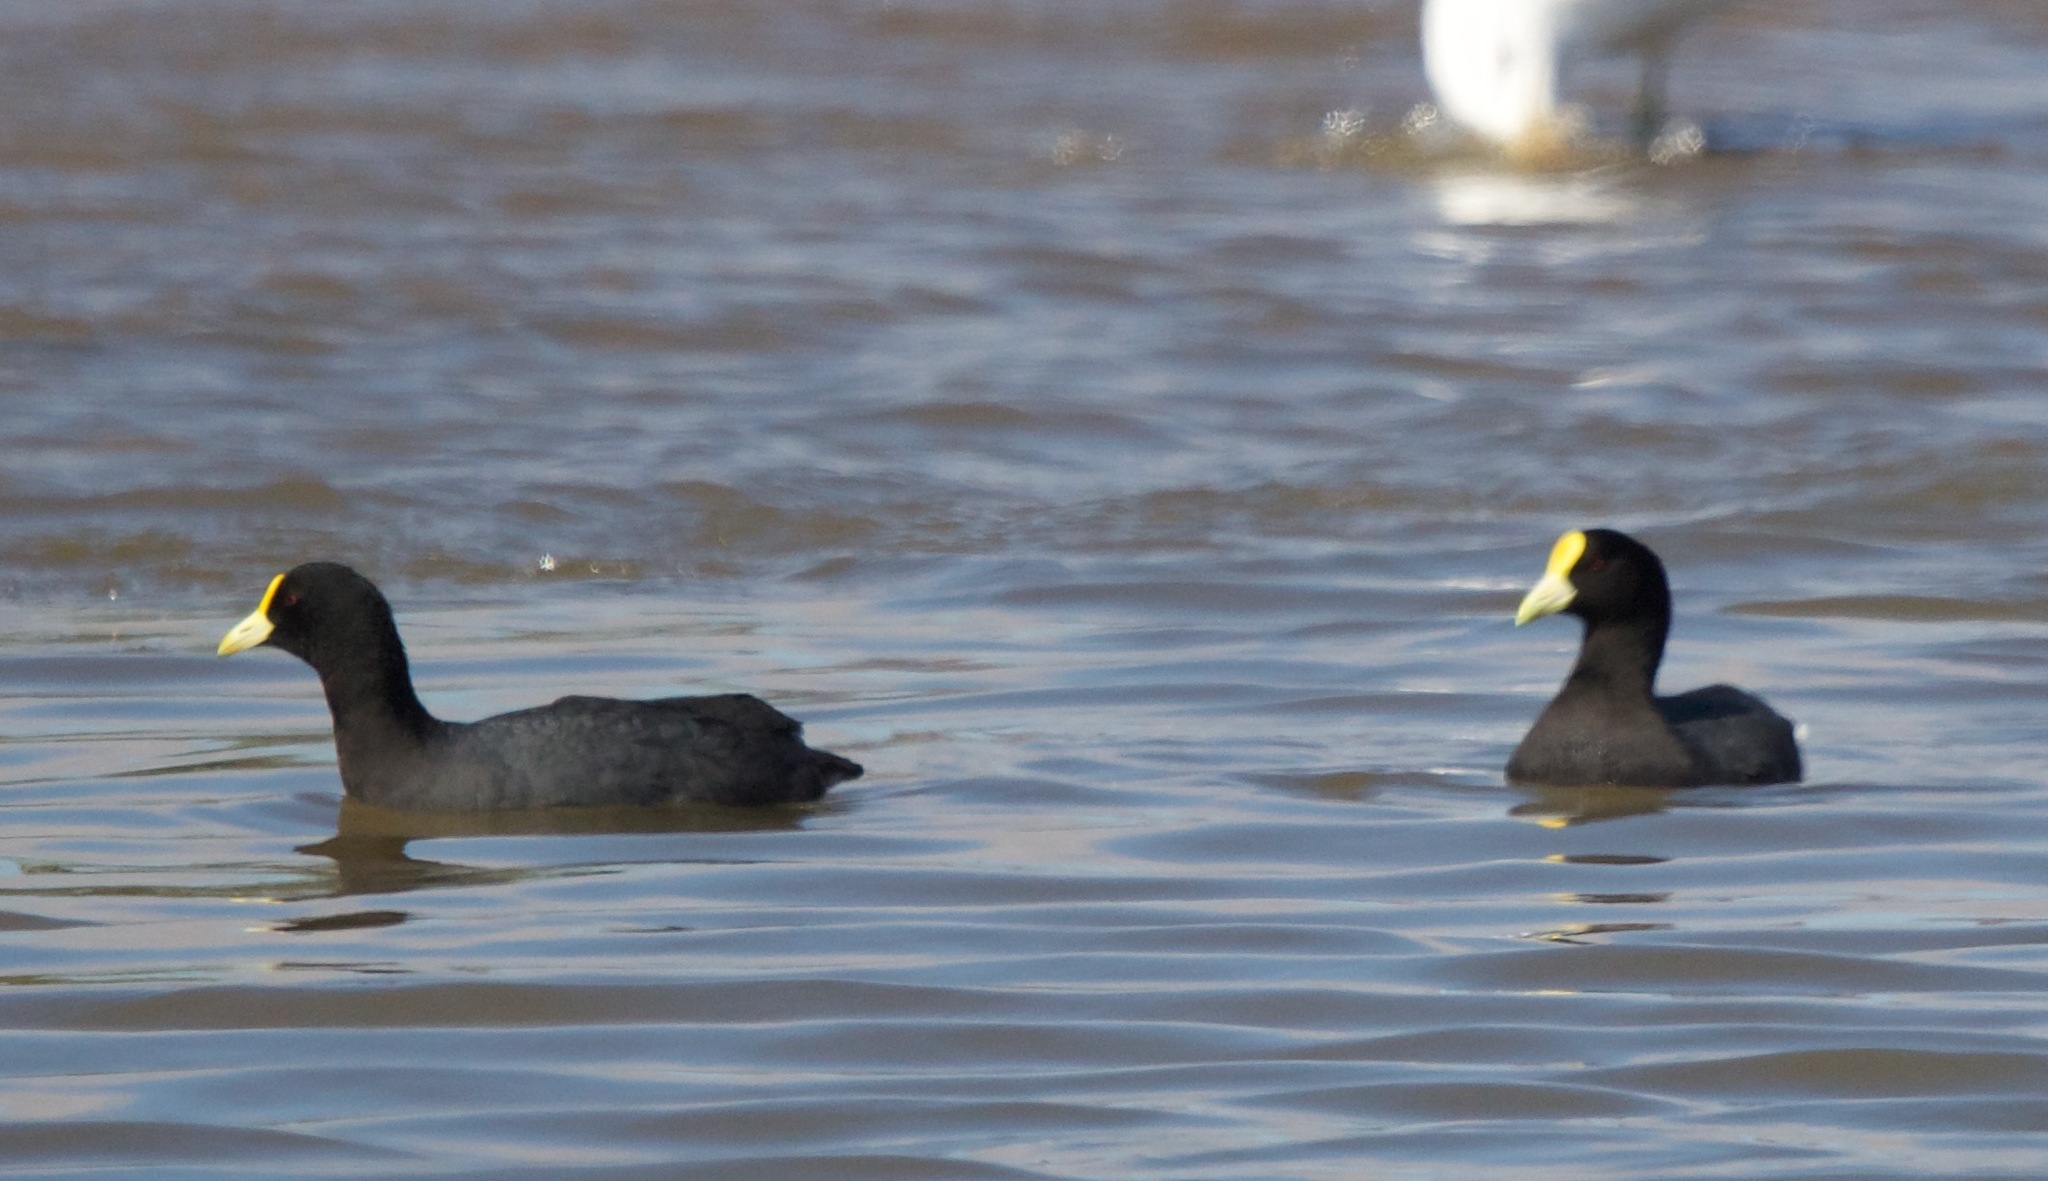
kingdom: Animalia
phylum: Chordata
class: Aves
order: Gruiformes
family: Rallidae
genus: Fulica
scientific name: Fulica leucoptera
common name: White-winged coot
